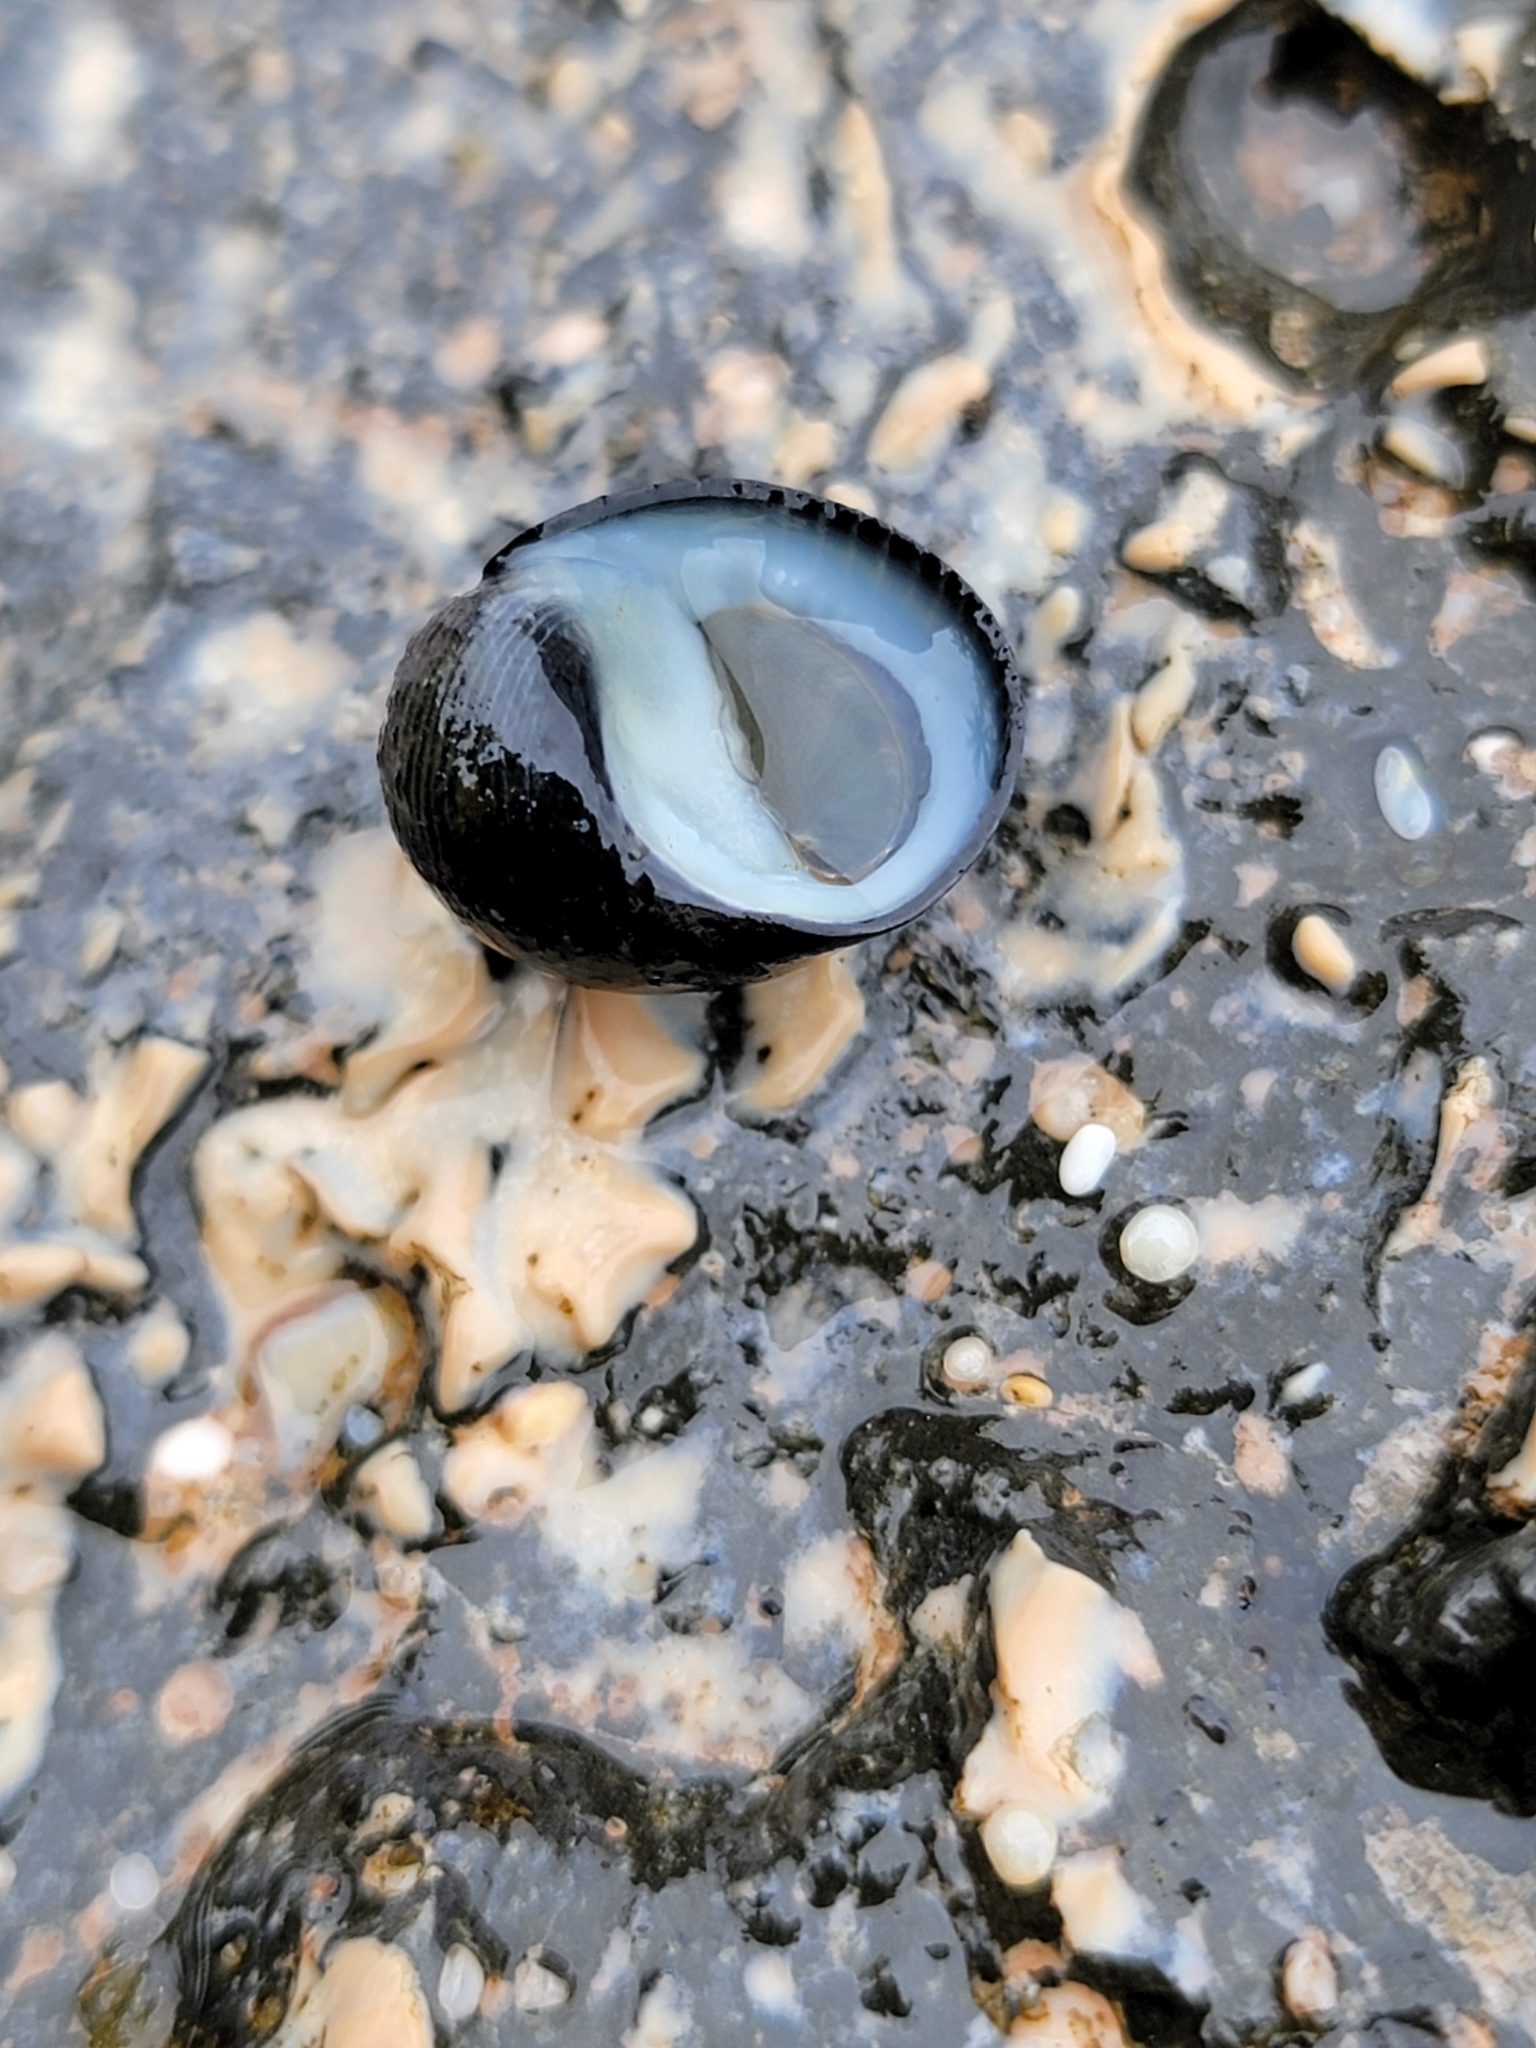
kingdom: Animalia
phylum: Mollusca
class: Gastropoda
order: Cycloneritida
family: Neritidae
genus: Nerita
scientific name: Nerita picea
